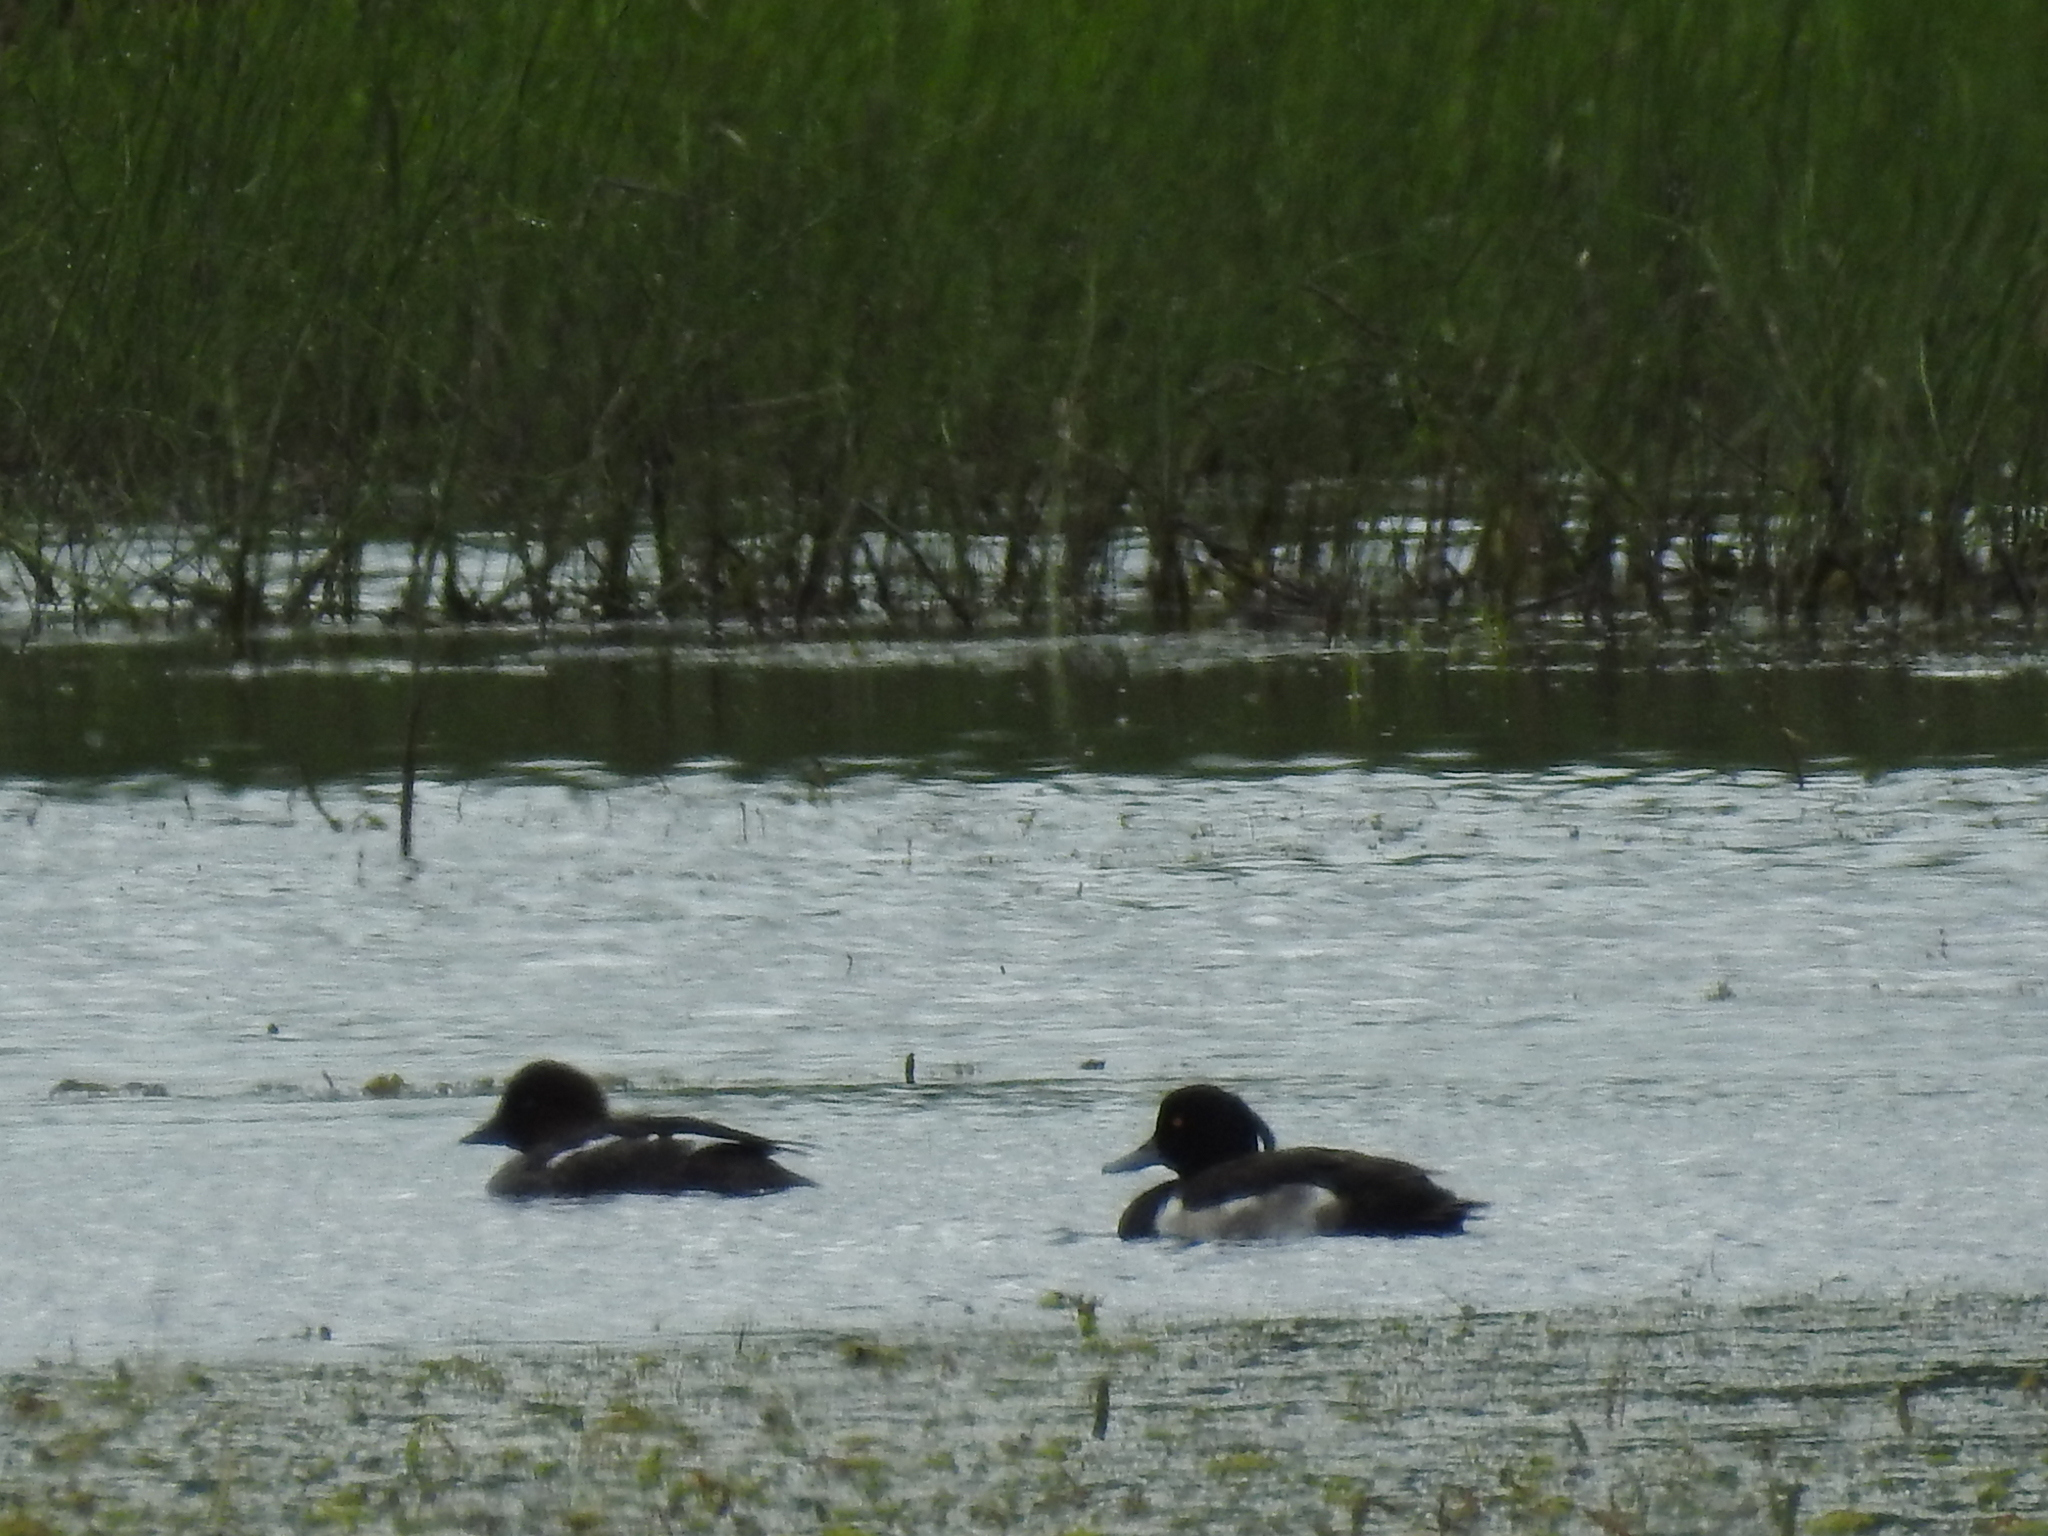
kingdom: Animalia
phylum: Chordata
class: Aves
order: Anseriformes
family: Anatidae
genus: Aythya
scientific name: Aythya fuligula
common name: Tufted duck
